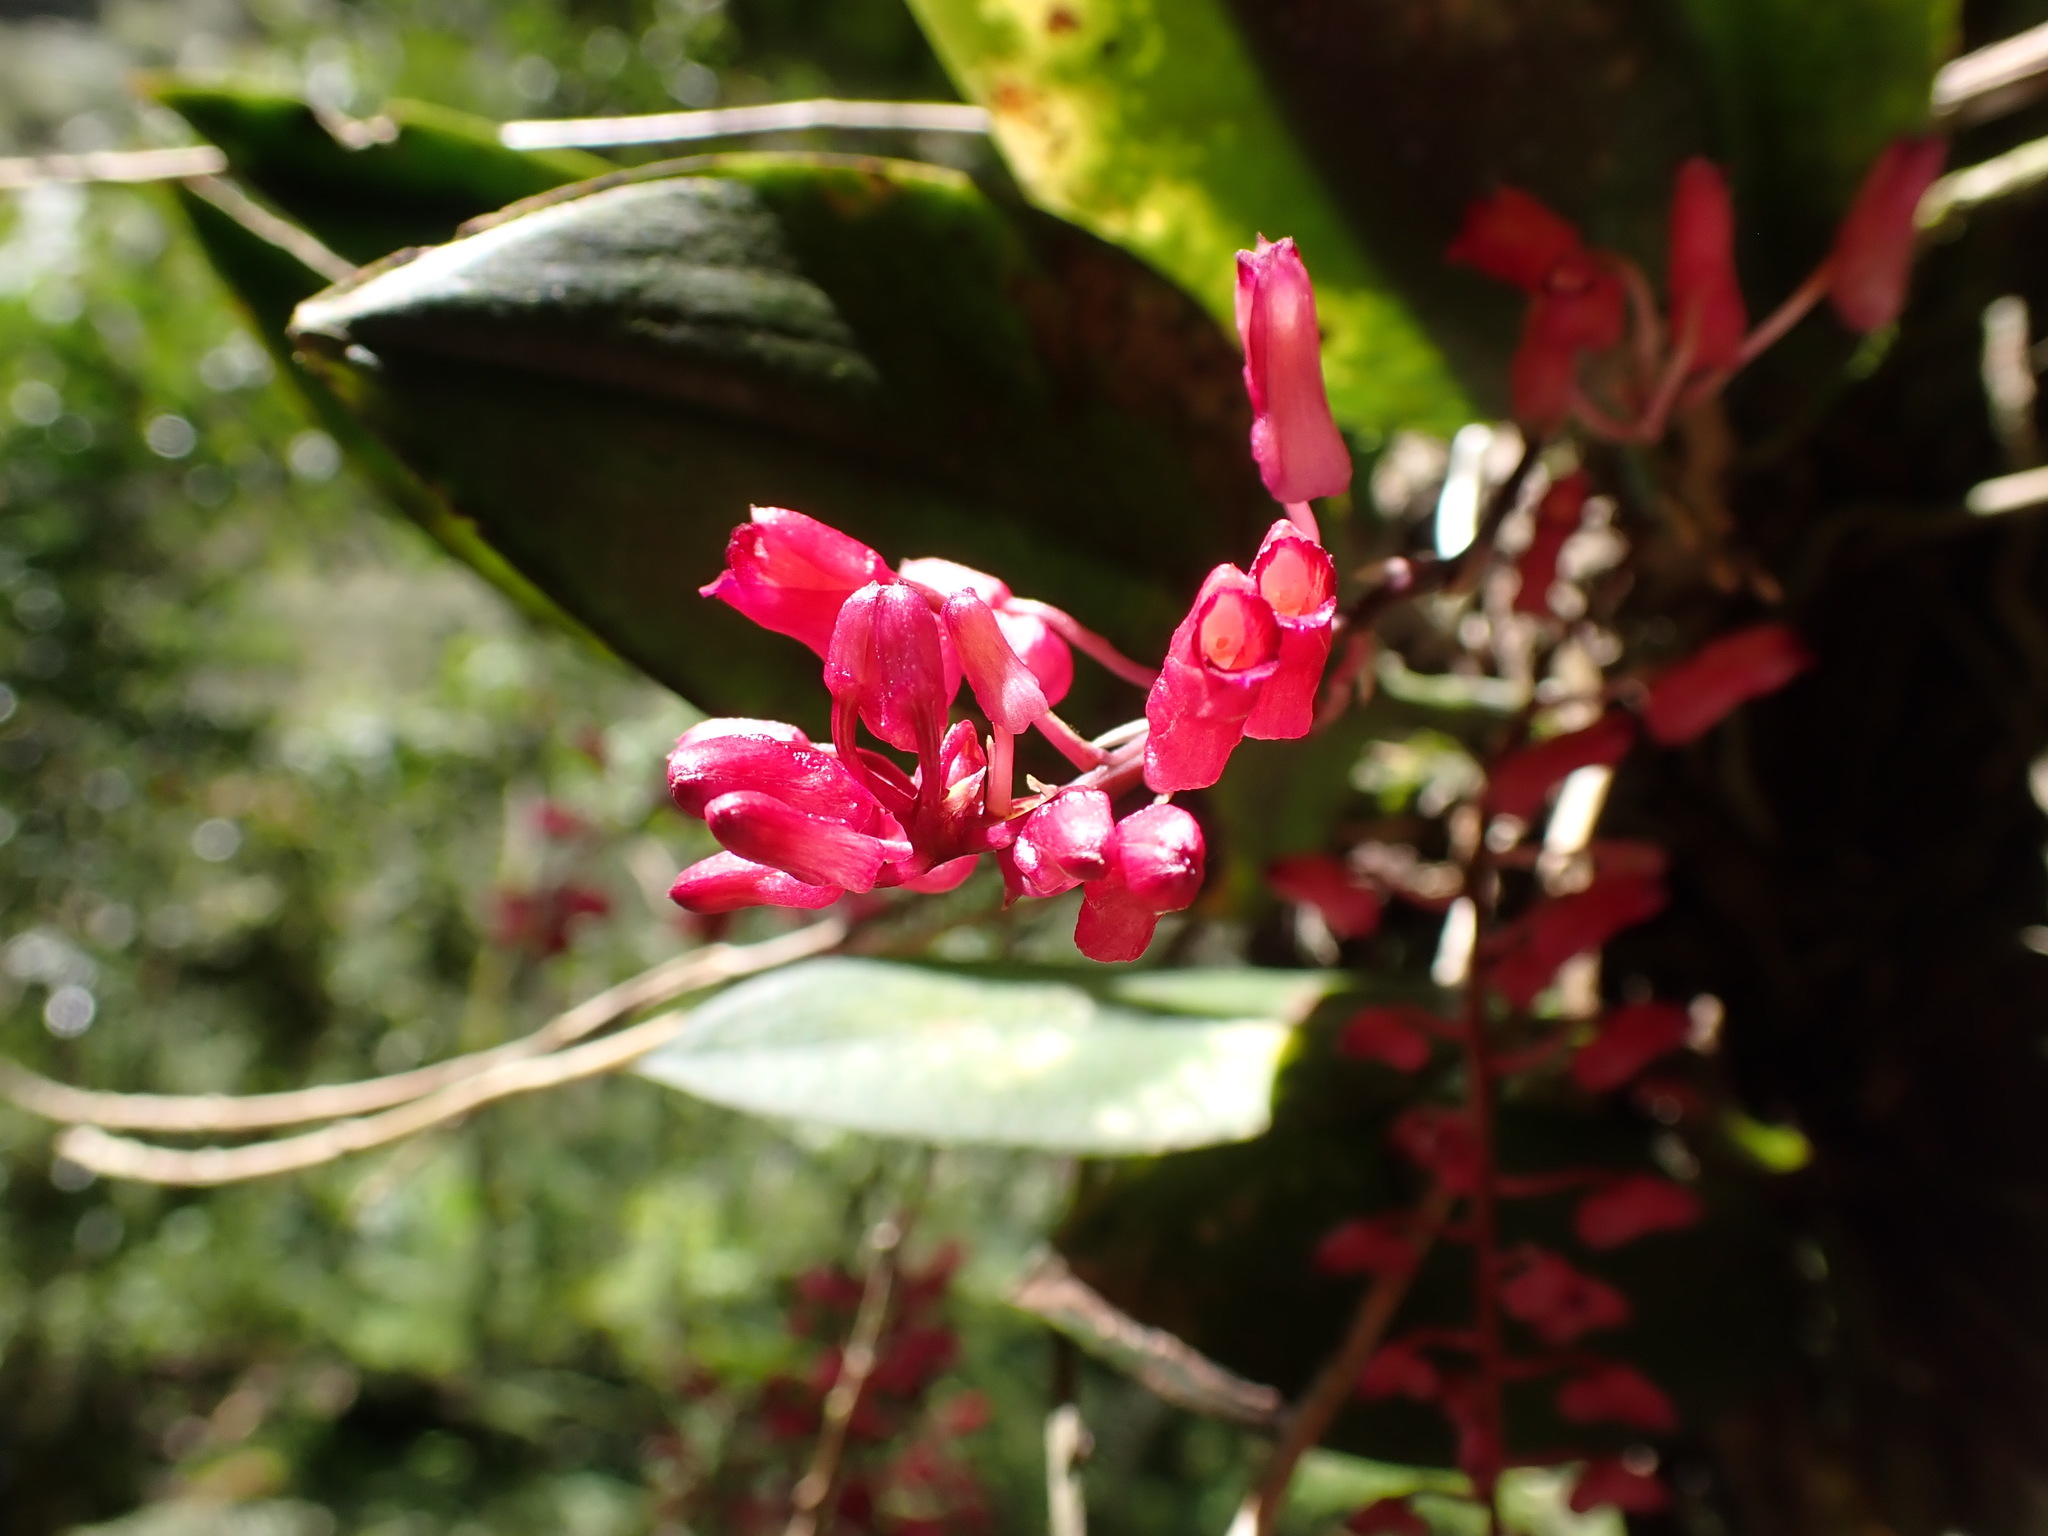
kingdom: Plantae
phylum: Tracheophyta
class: Liliopsida
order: Asparagales
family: Orchidaceae
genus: Comparettia
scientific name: Comparettia rubriflora
